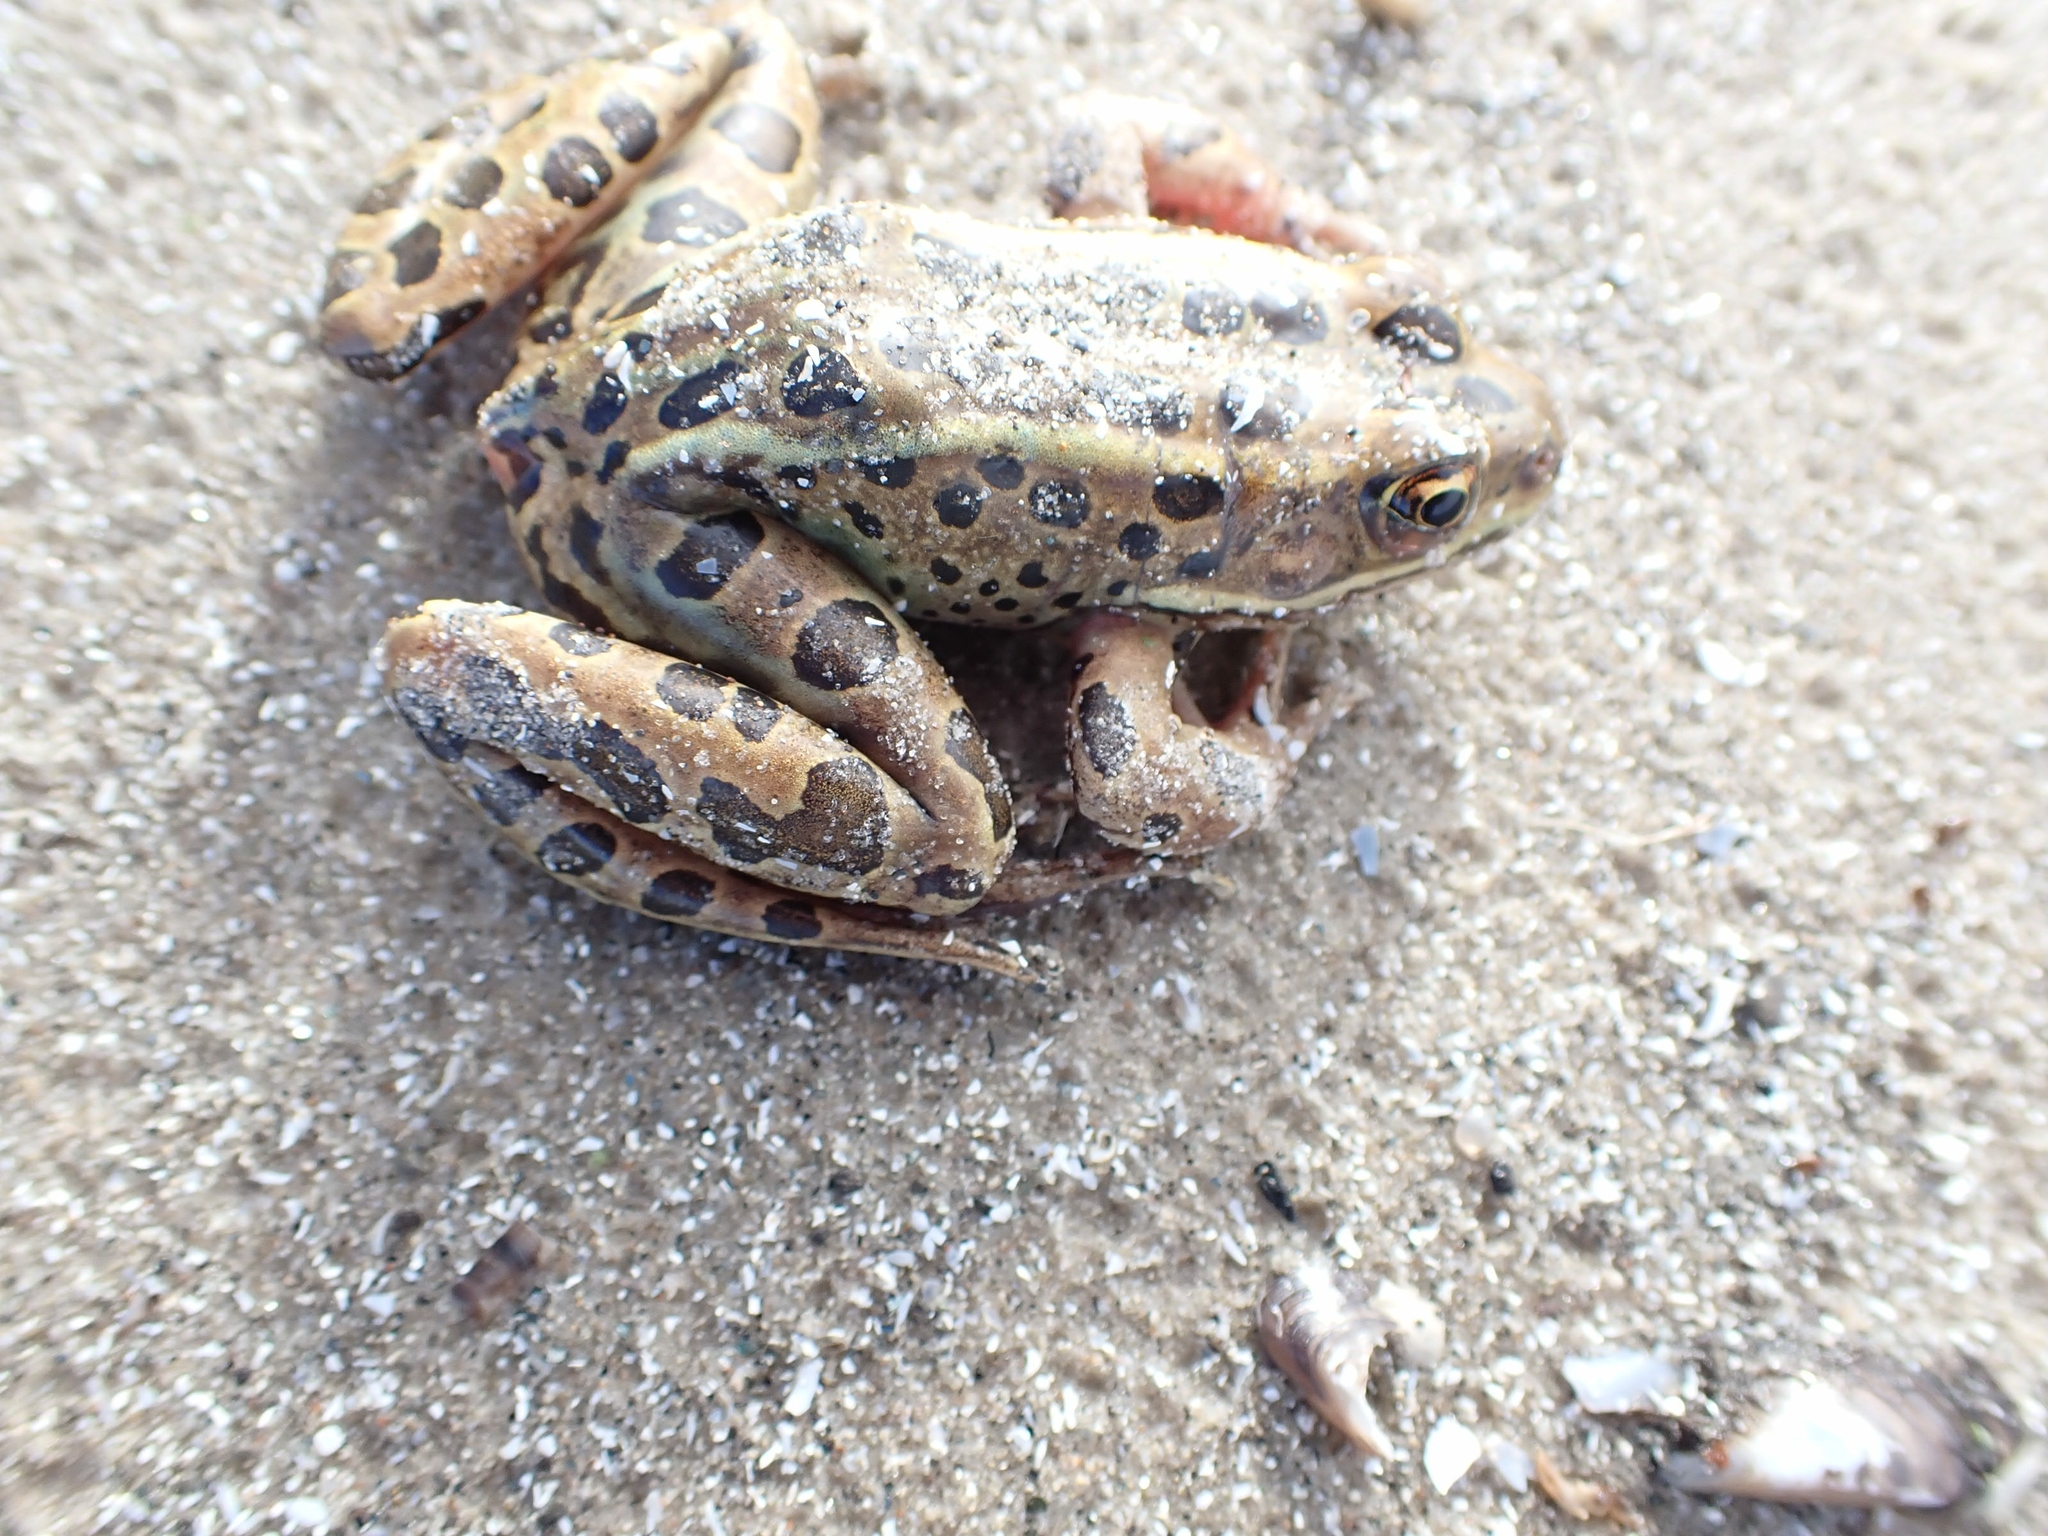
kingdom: Animalia
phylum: Chordata
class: Amphibia
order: Anura
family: Ranidae
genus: Lithobates
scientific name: Lithobates pipiens
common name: Northern leopard frog
